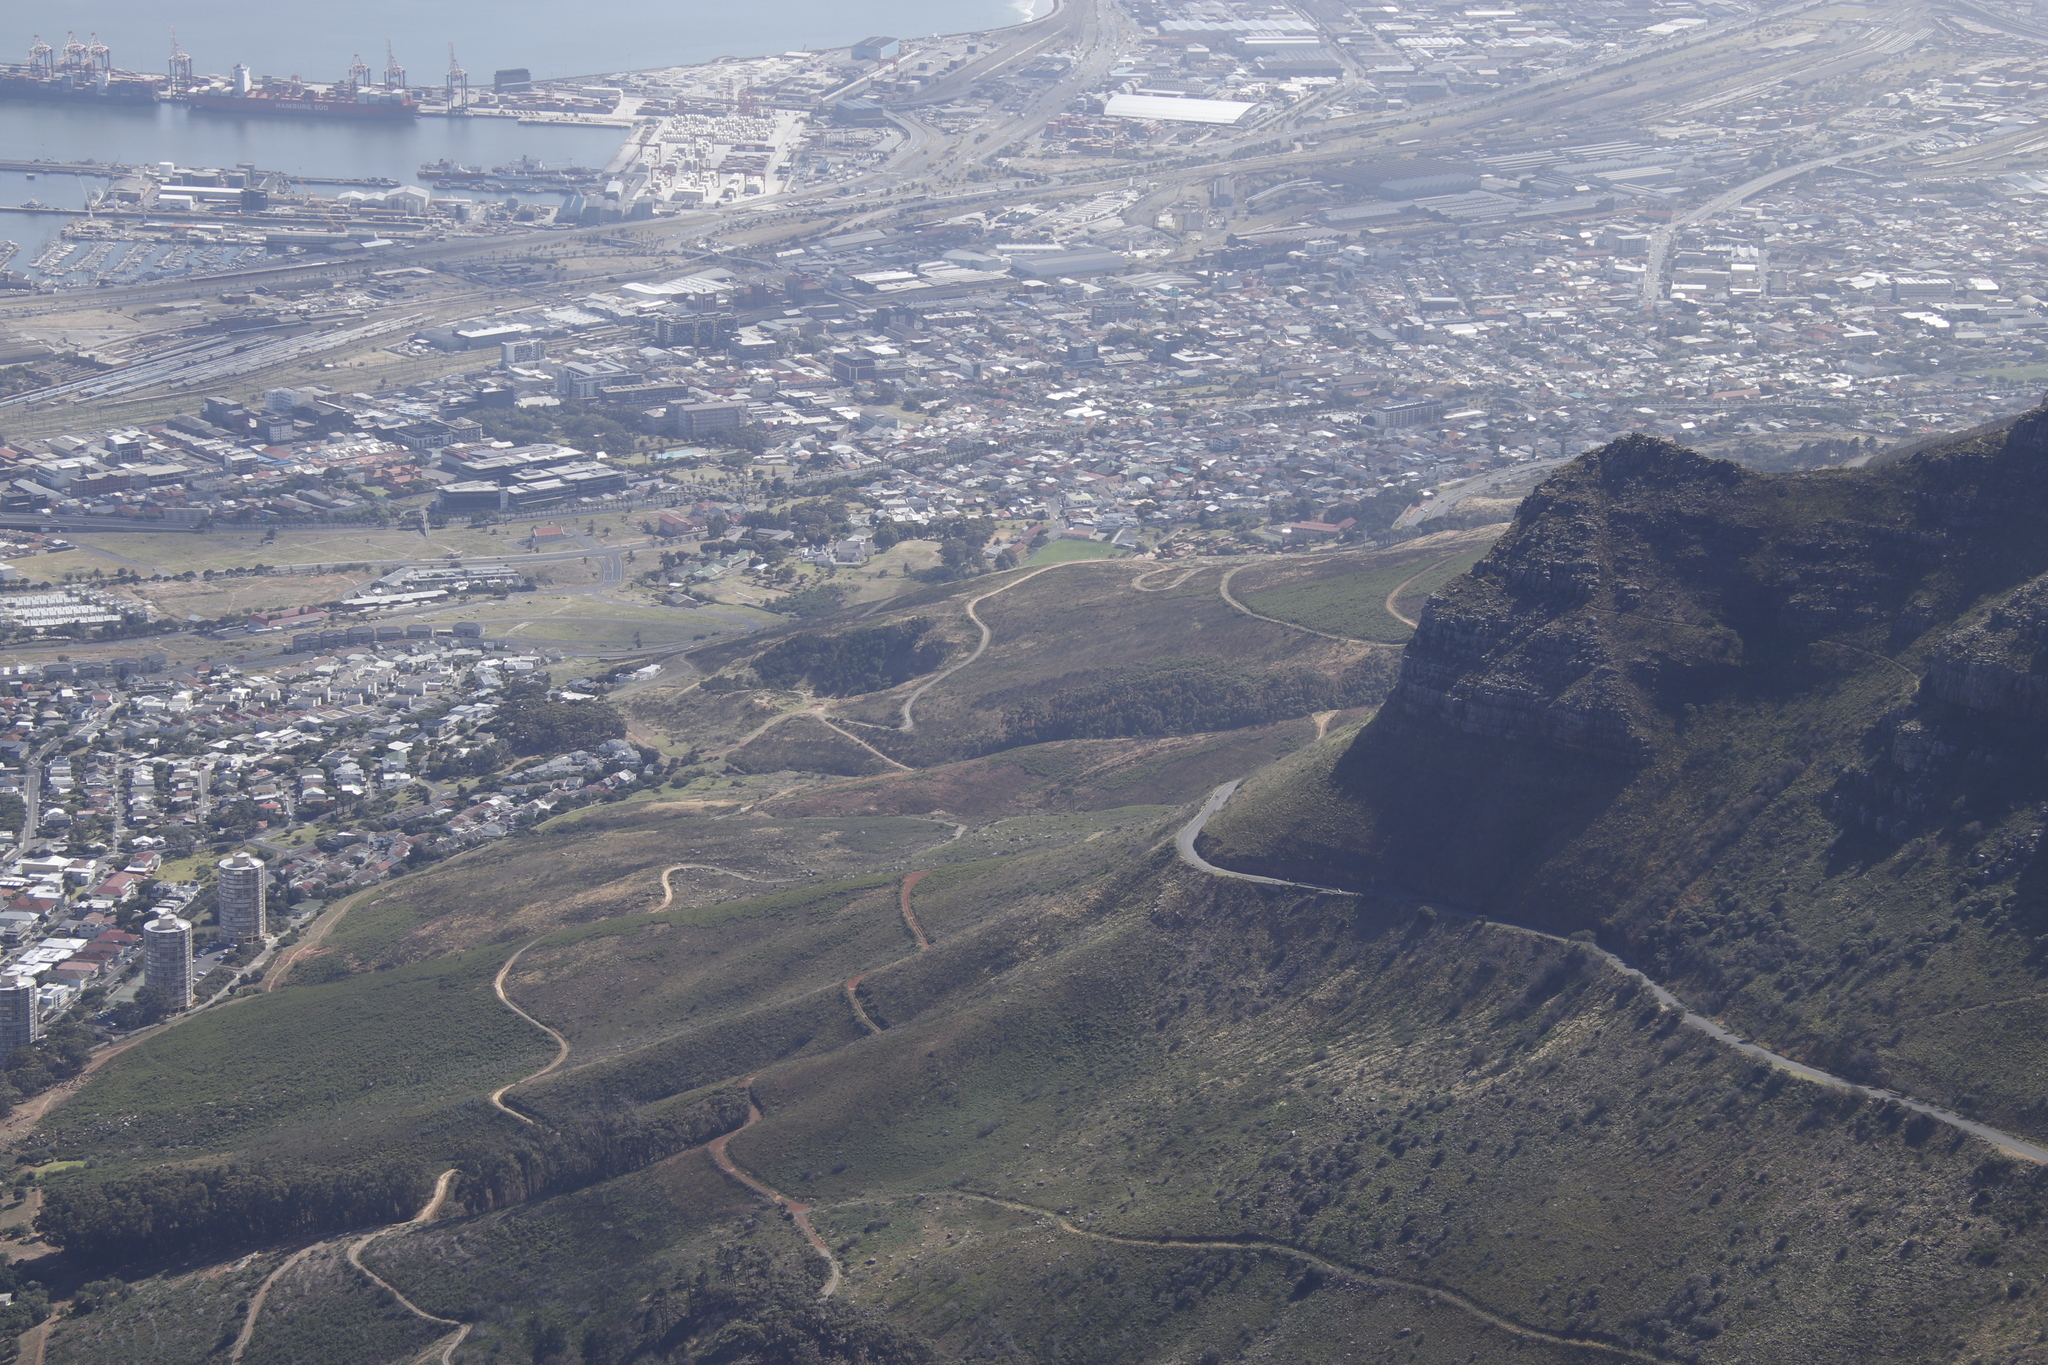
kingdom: Plantae
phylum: Tracheophyta
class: Magnoliopsida
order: Myrtales
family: Myrtaceae
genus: Eucalyptus
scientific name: Eucalyptus cladocalyx
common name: Sugargum
